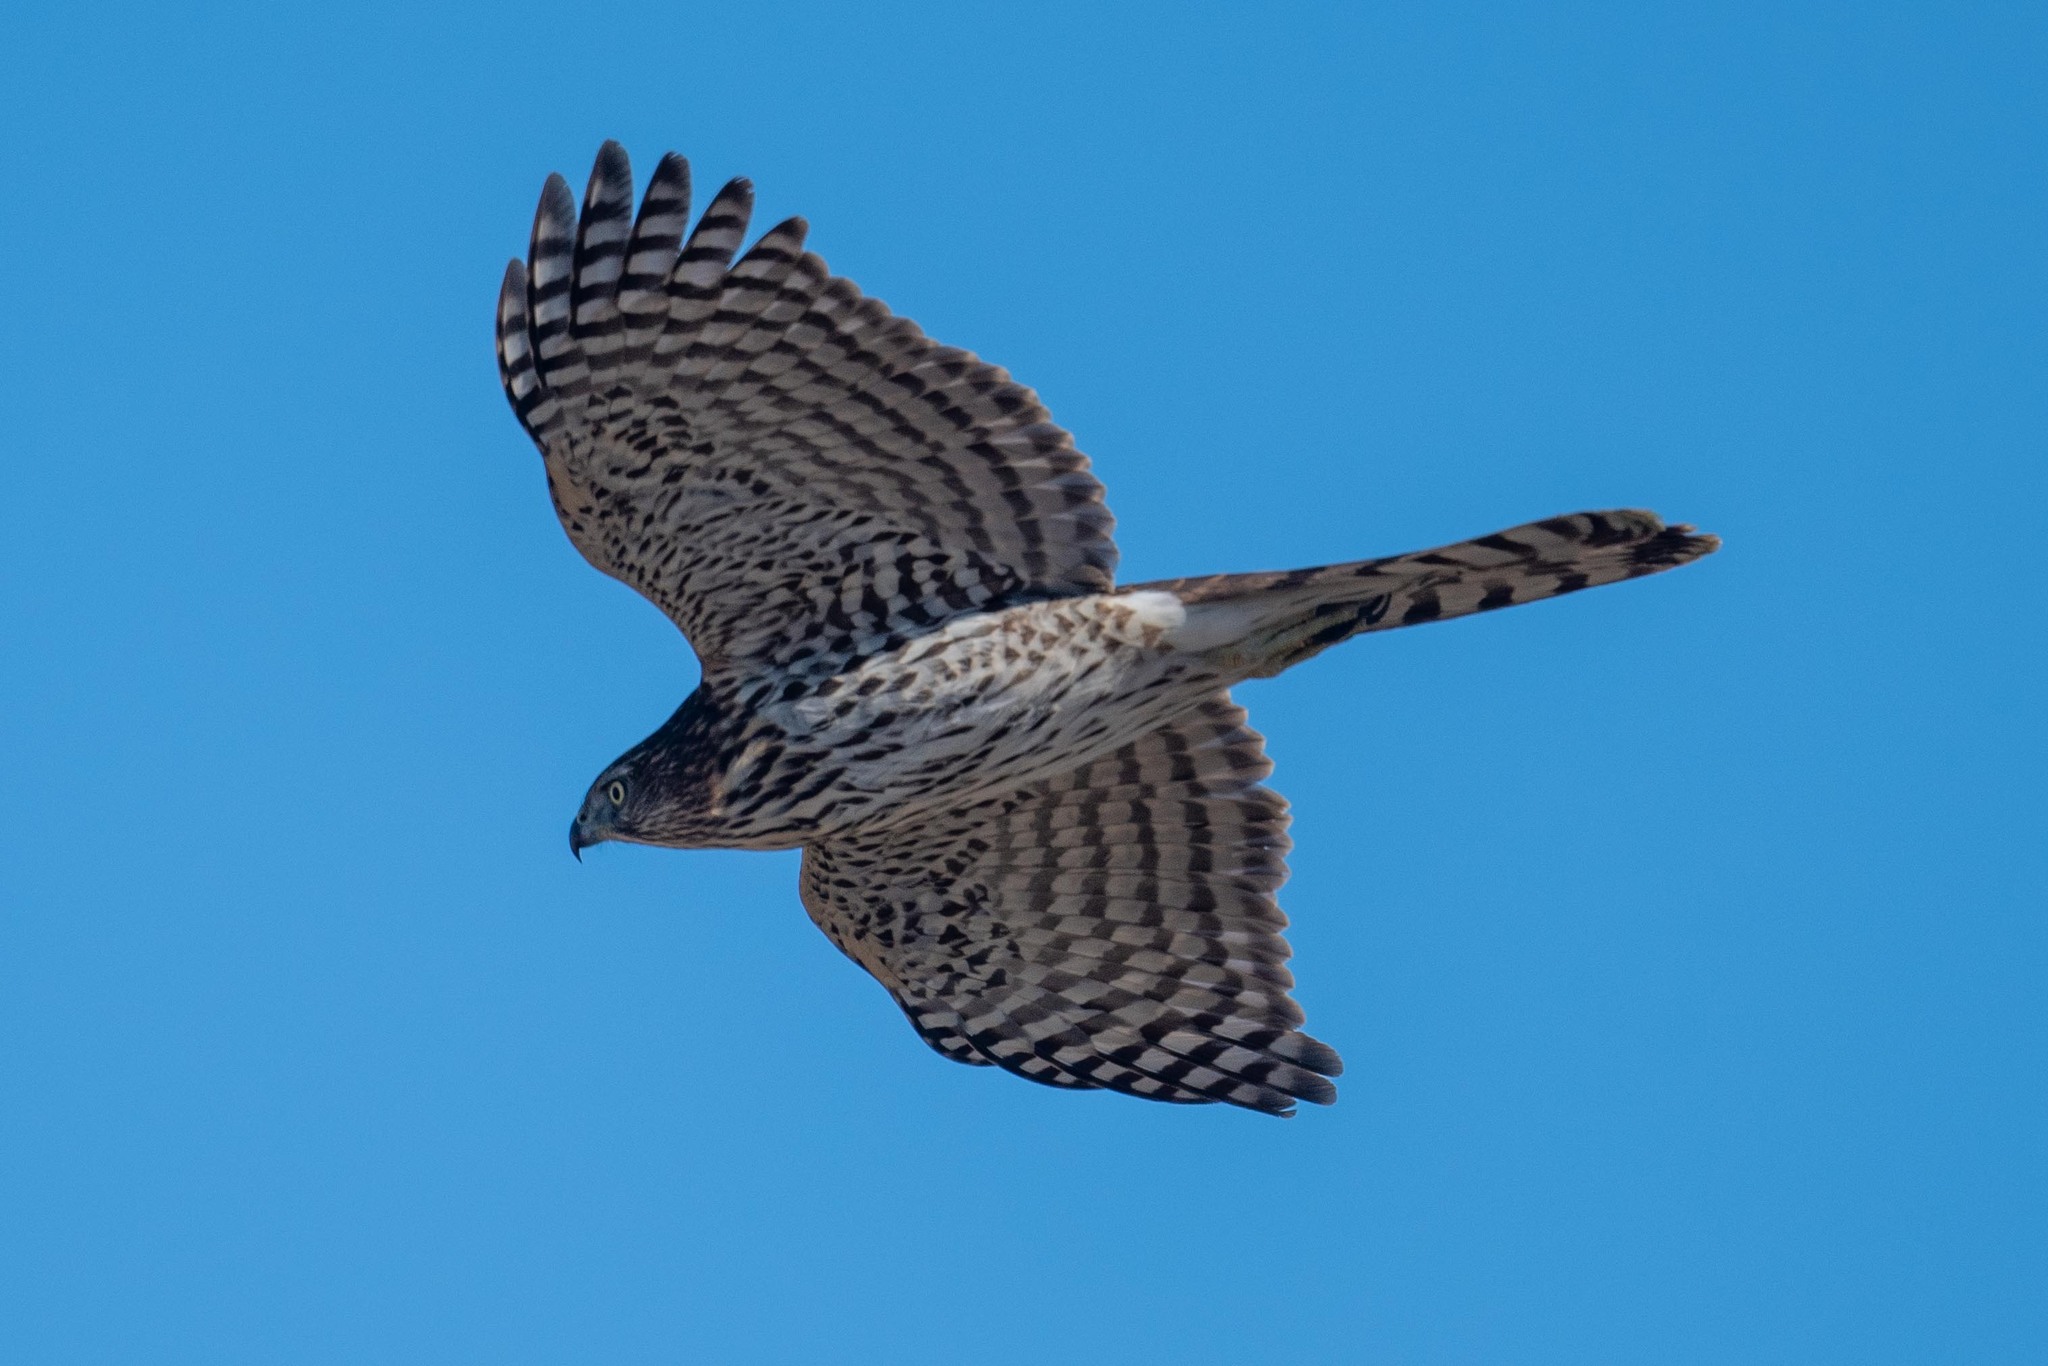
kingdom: Animalia
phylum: Chordata
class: Aves
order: Accipitriformes
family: Accipitridae
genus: Accipiter
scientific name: Accipiter cooperii
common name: Cooper's hawk
